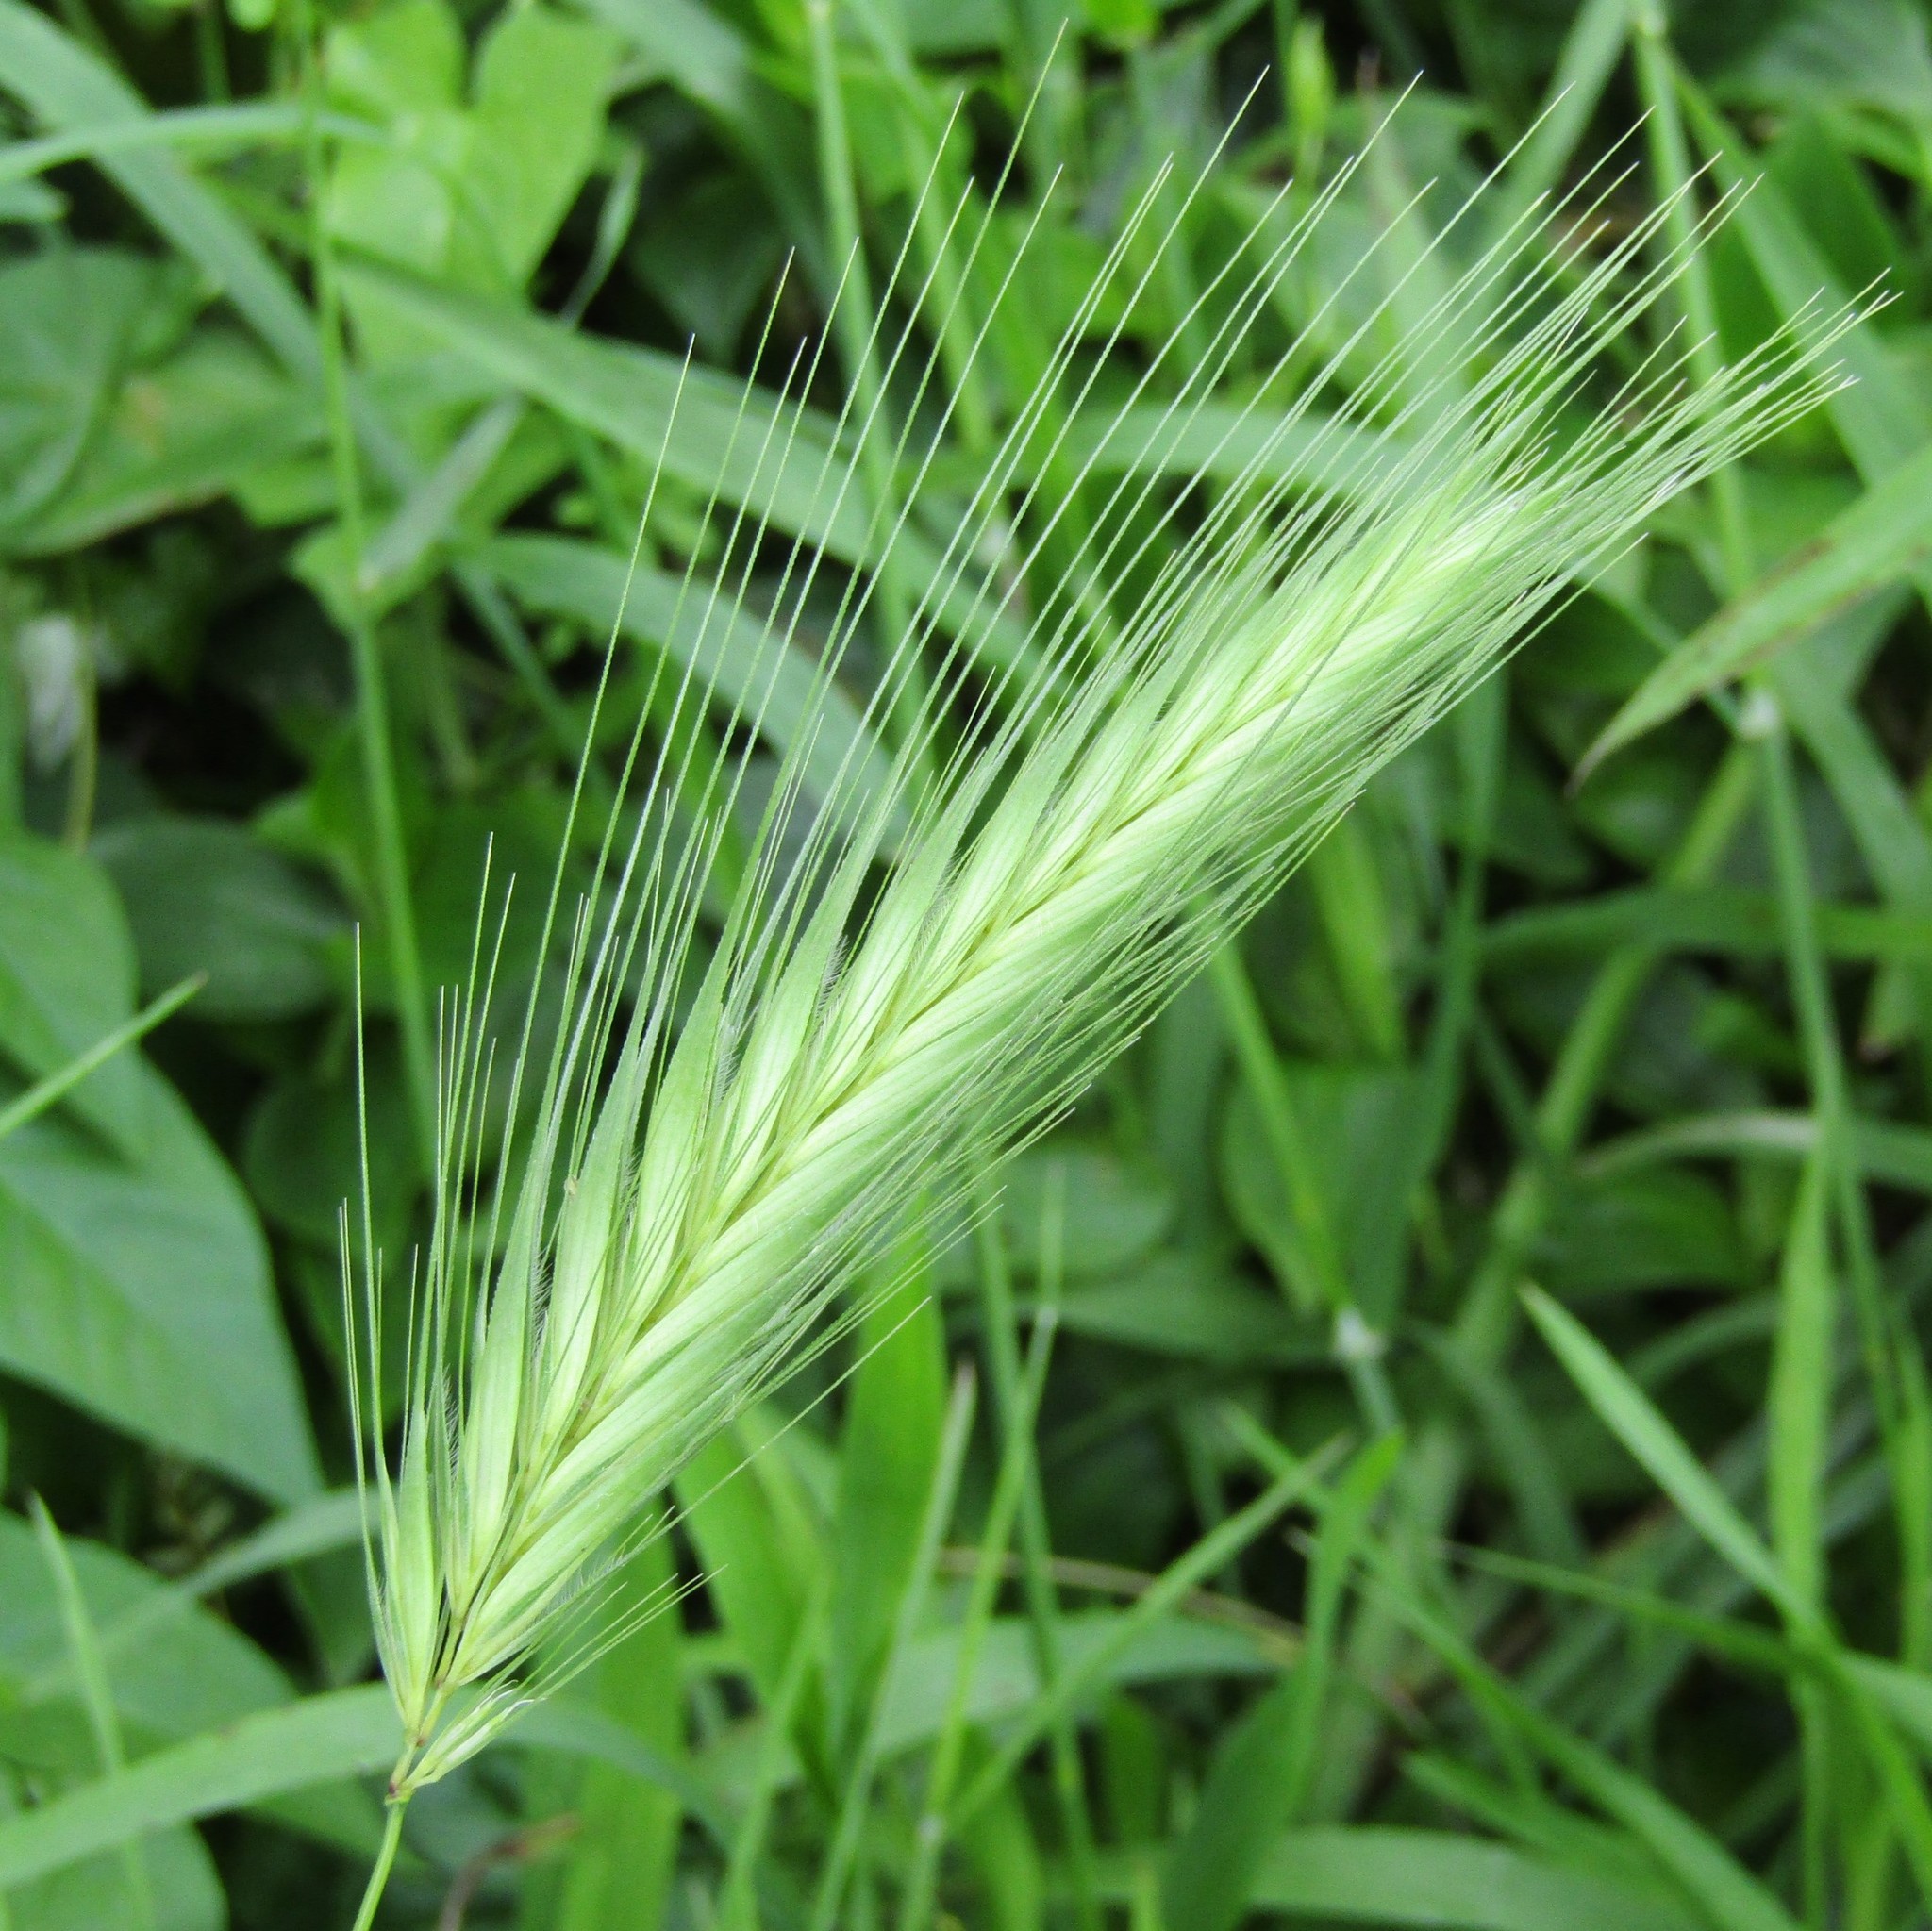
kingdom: Plantae
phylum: Tracheophyta
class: Liliopsida
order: Poales
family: Poaceae
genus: Hordeum
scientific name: Hordeum murinum
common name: Wall barley
